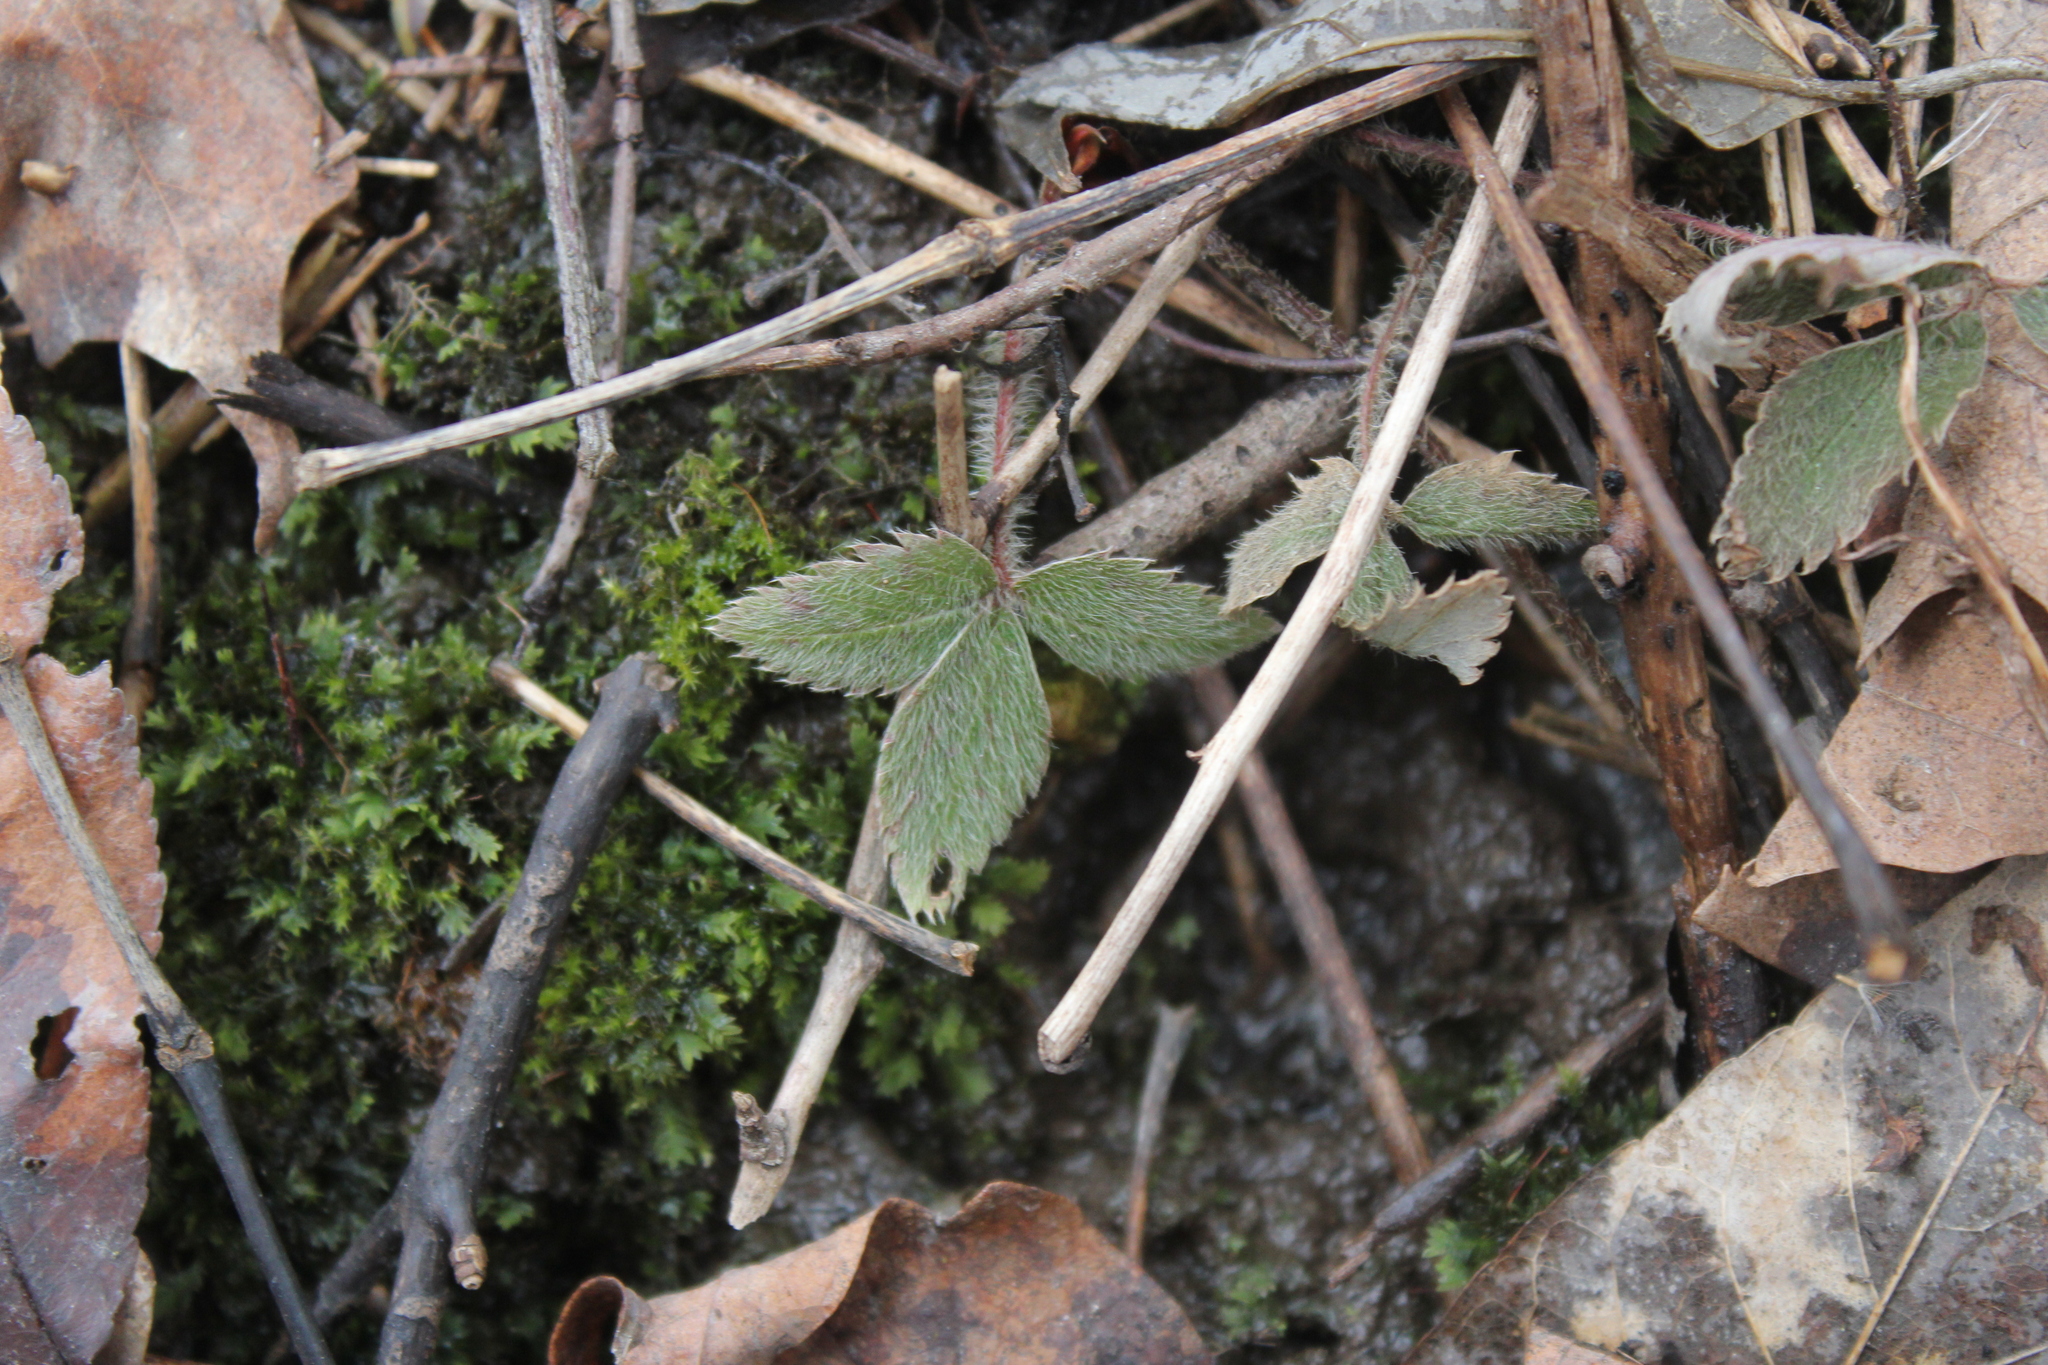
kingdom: Plantae
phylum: Tracheophyta
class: Magnoliopsida
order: Rosales
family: Rosaceae
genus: Fragaria
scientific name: Fragaria virginiana
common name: Thickleaved wild strawberry
